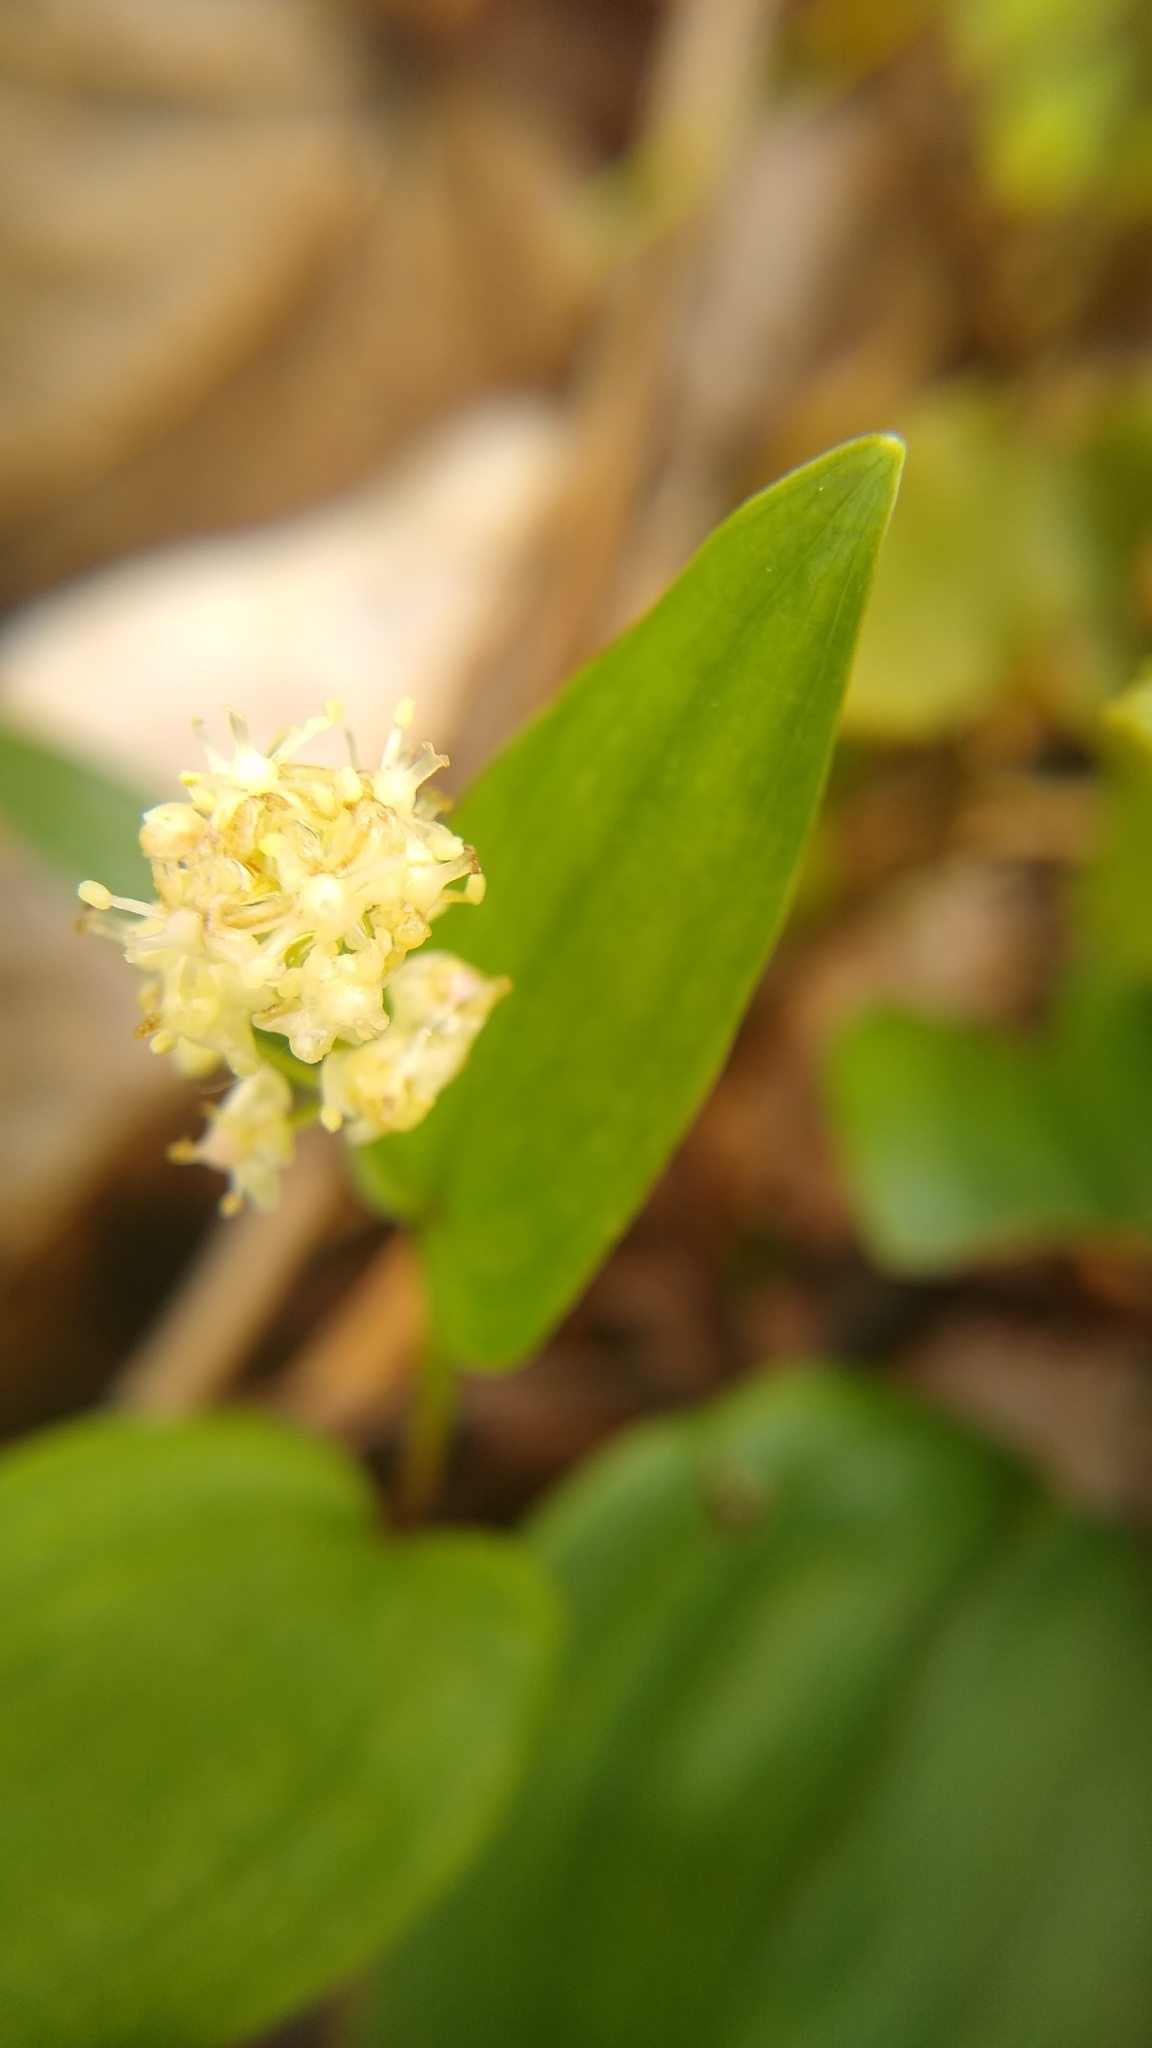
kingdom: Plantae
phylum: Tracheophyta
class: Liliopsida
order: Asparagales
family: Asparagaceae
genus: Maianthemum
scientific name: Maianthemum canadense
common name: False lily-of-the-valley
